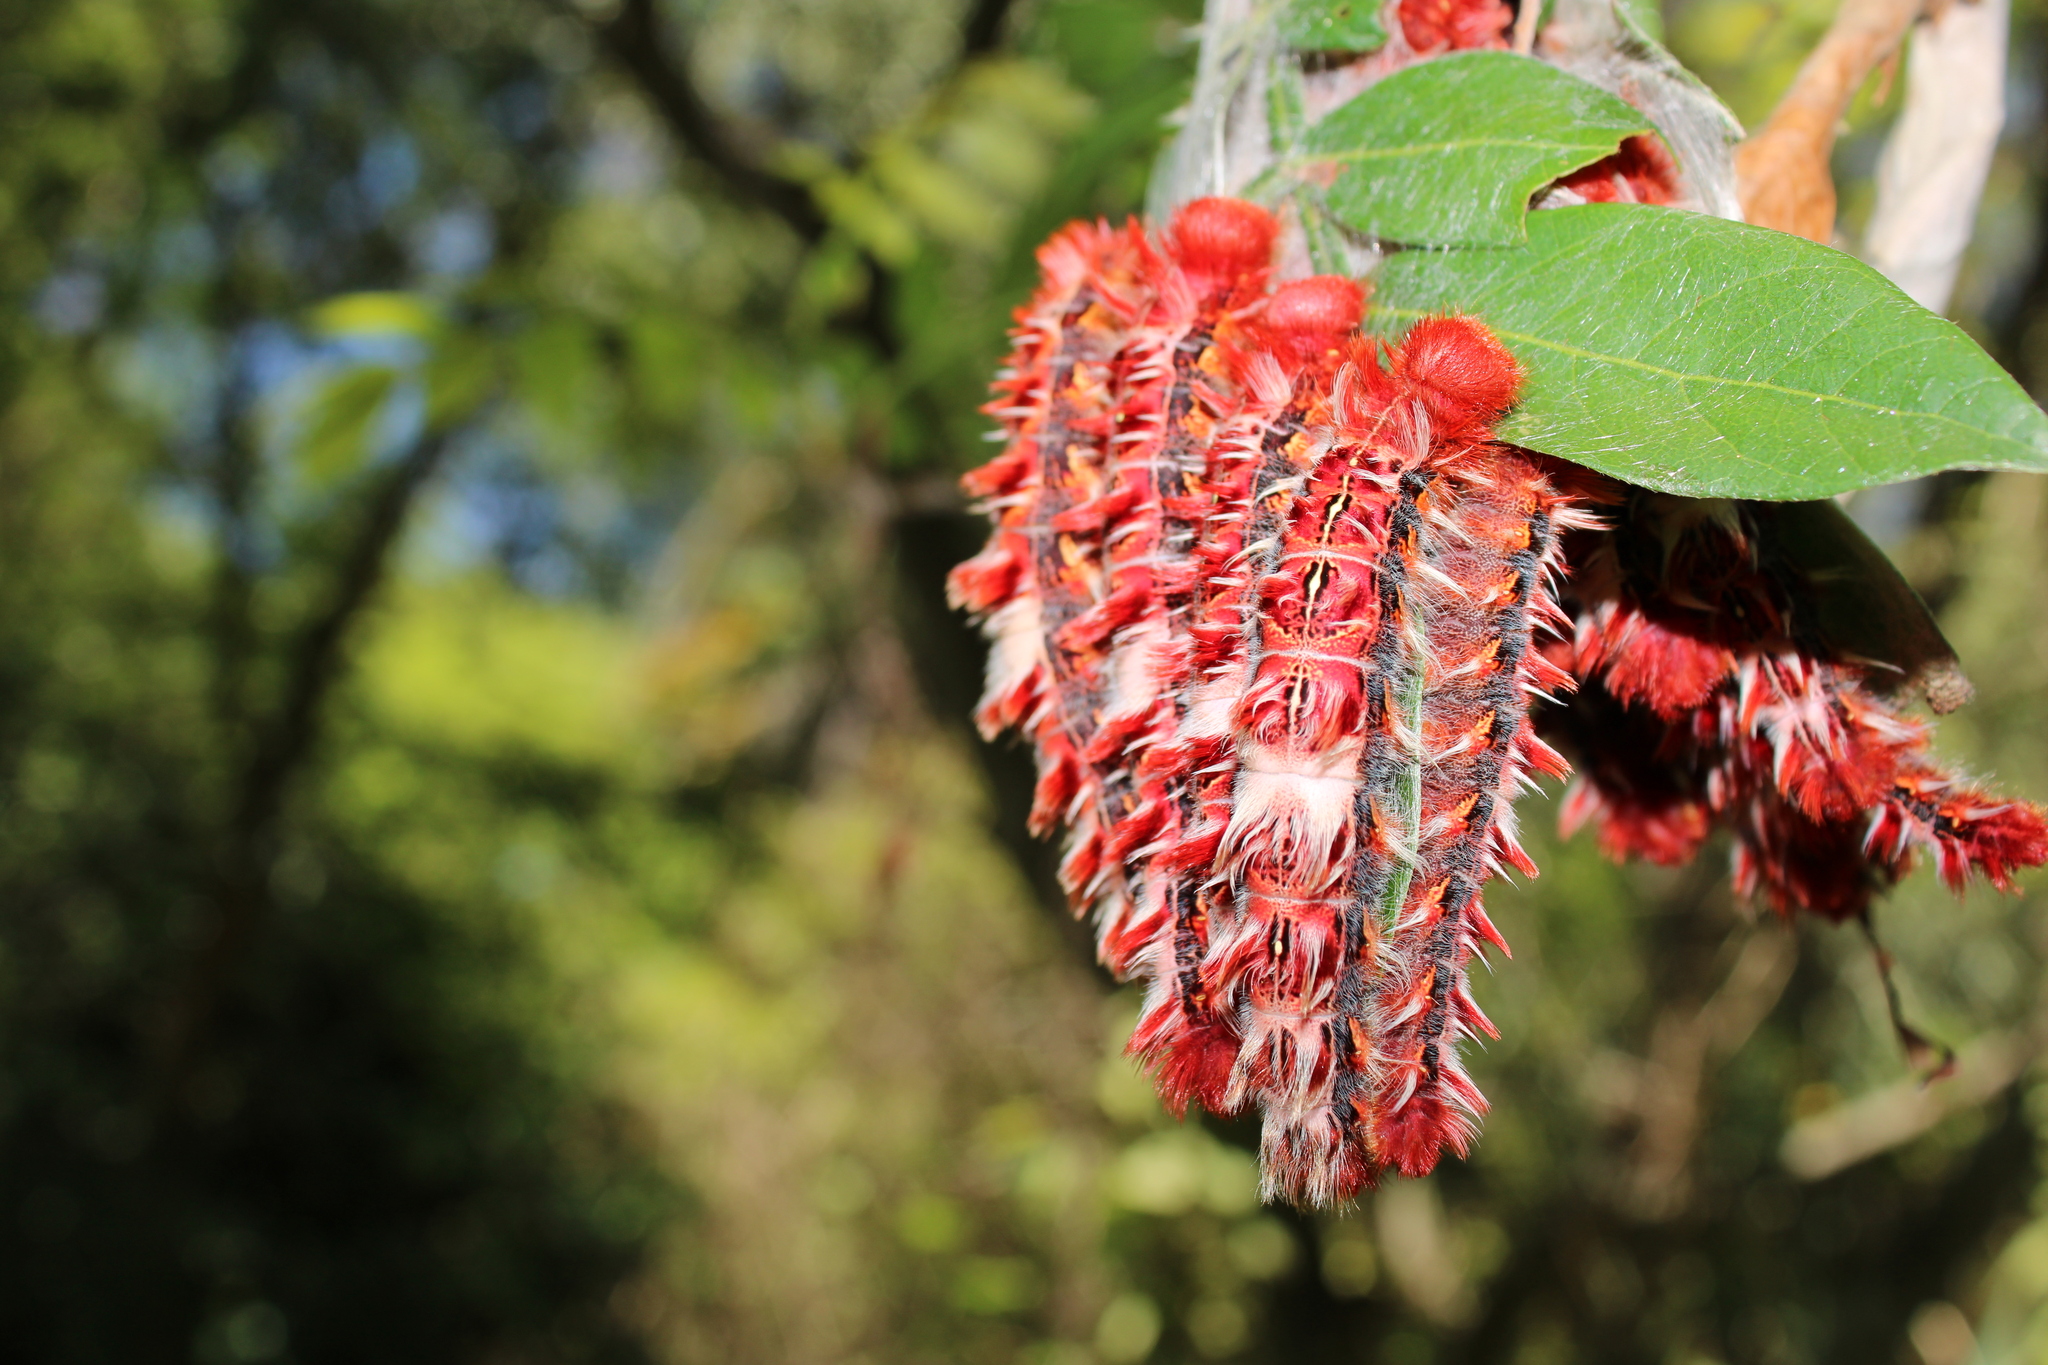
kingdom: Animalia
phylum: Arthropoda
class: Insecta
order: Lepidoptera
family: Nymphalidae
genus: Morpho
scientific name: Morpho epistrophus
